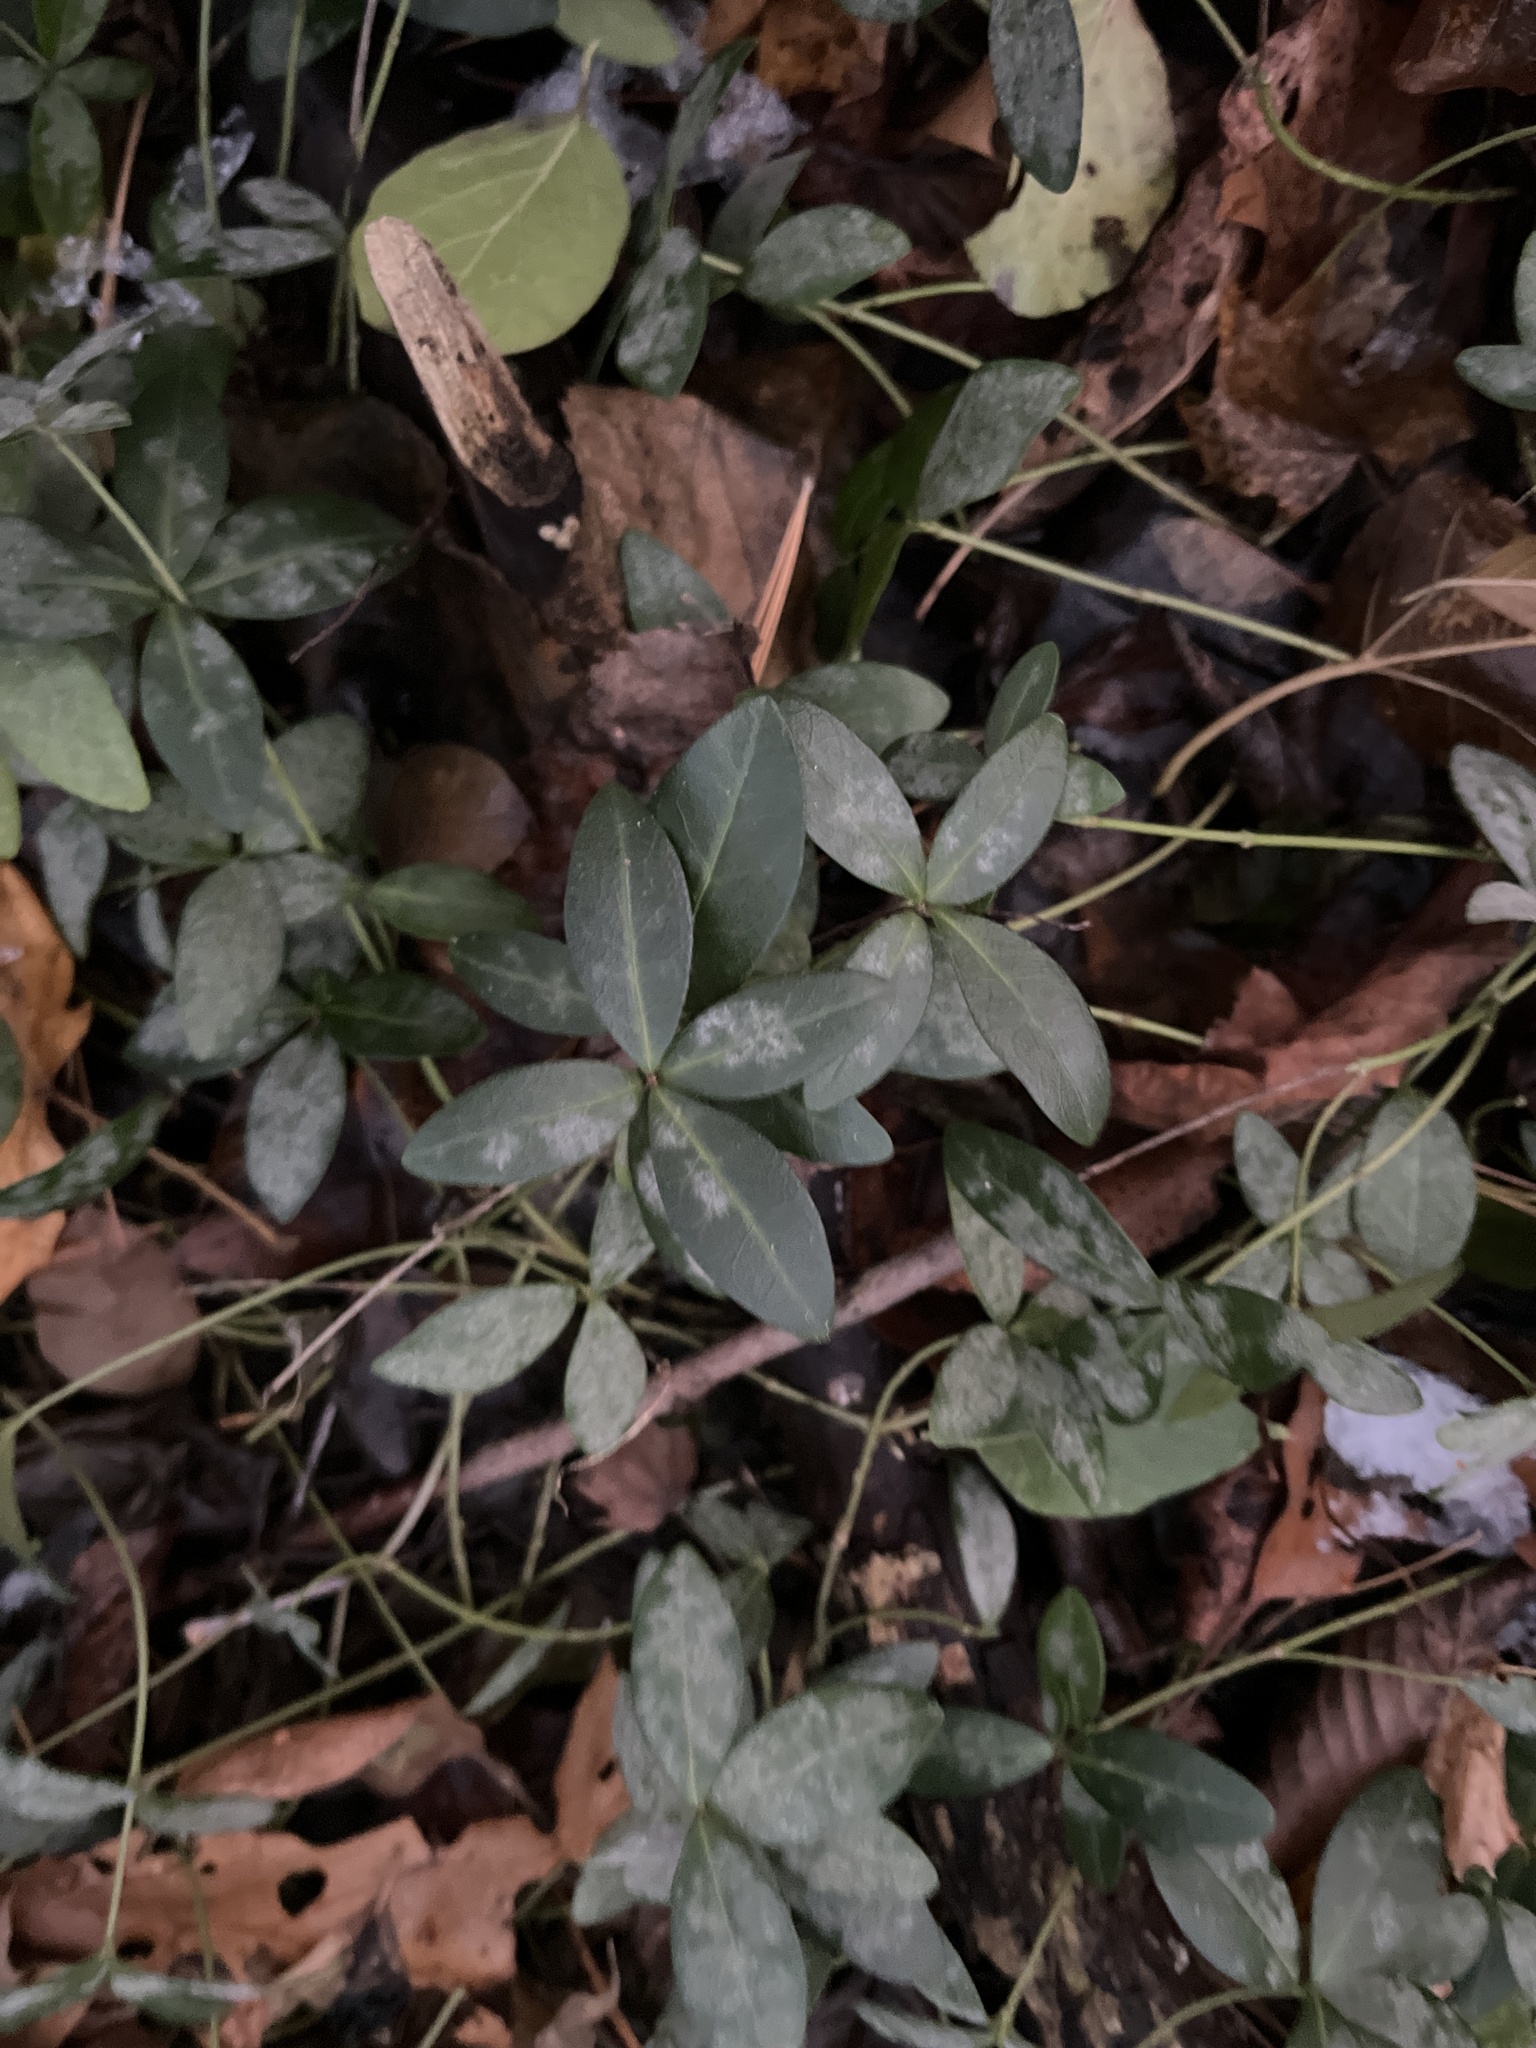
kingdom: Plantae
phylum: Tracheophyta
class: Magnoliopsida
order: Gentianales
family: Apocynaceae
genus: Vinca
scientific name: Vinca minor
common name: Lesser periwinkle
